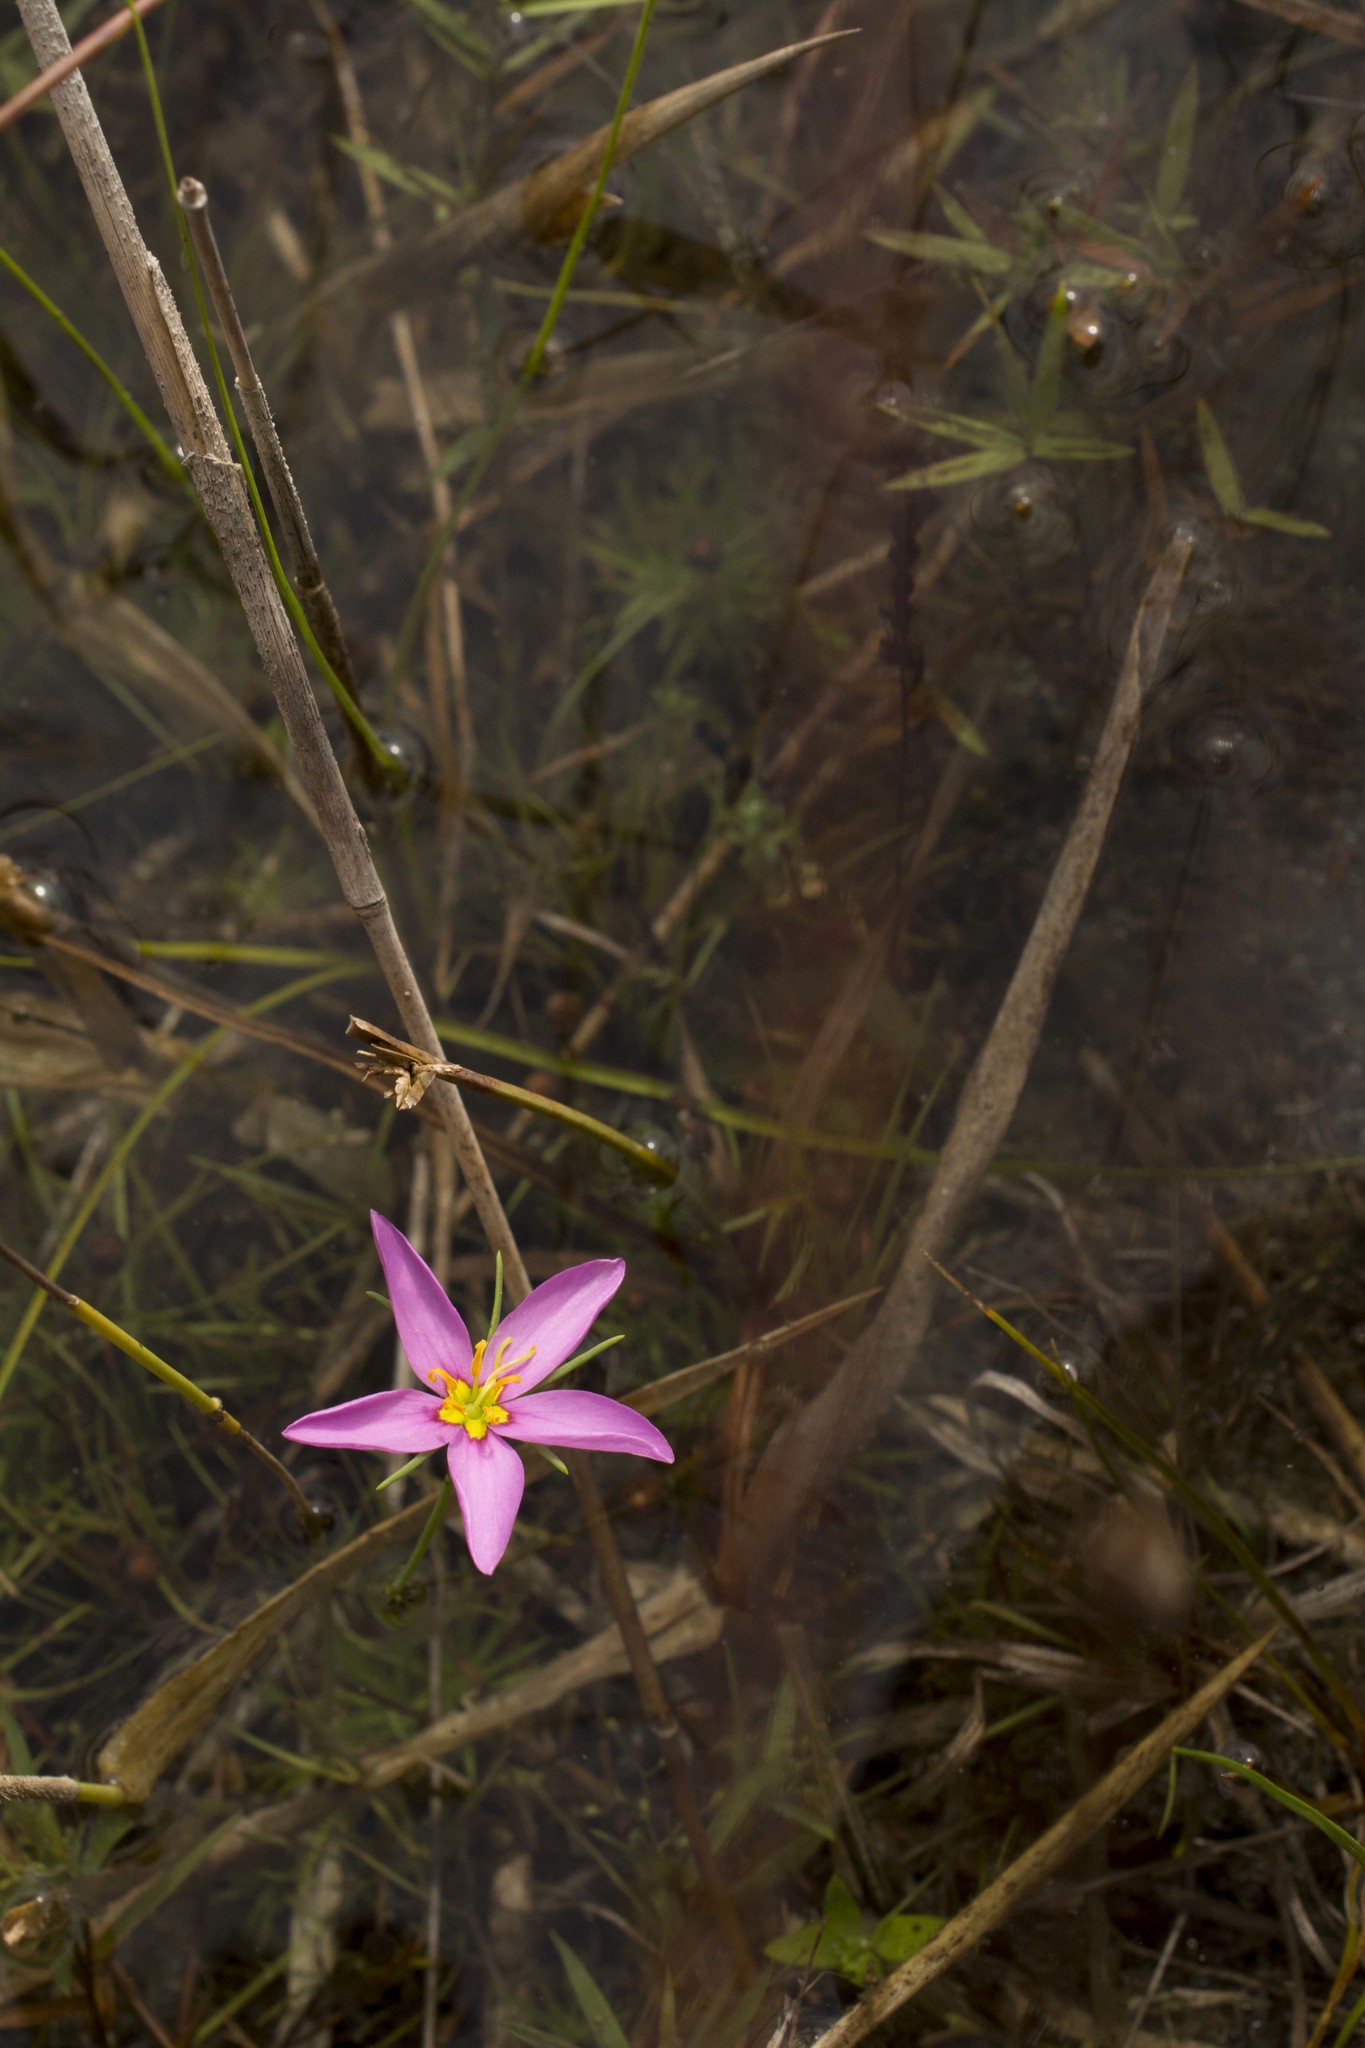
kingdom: Plantae
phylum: Tracheophyta
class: Magnoliopsida
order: Gentianales
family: Gentianaceae
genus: Sabatia
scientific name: Sabatia grandiflora
